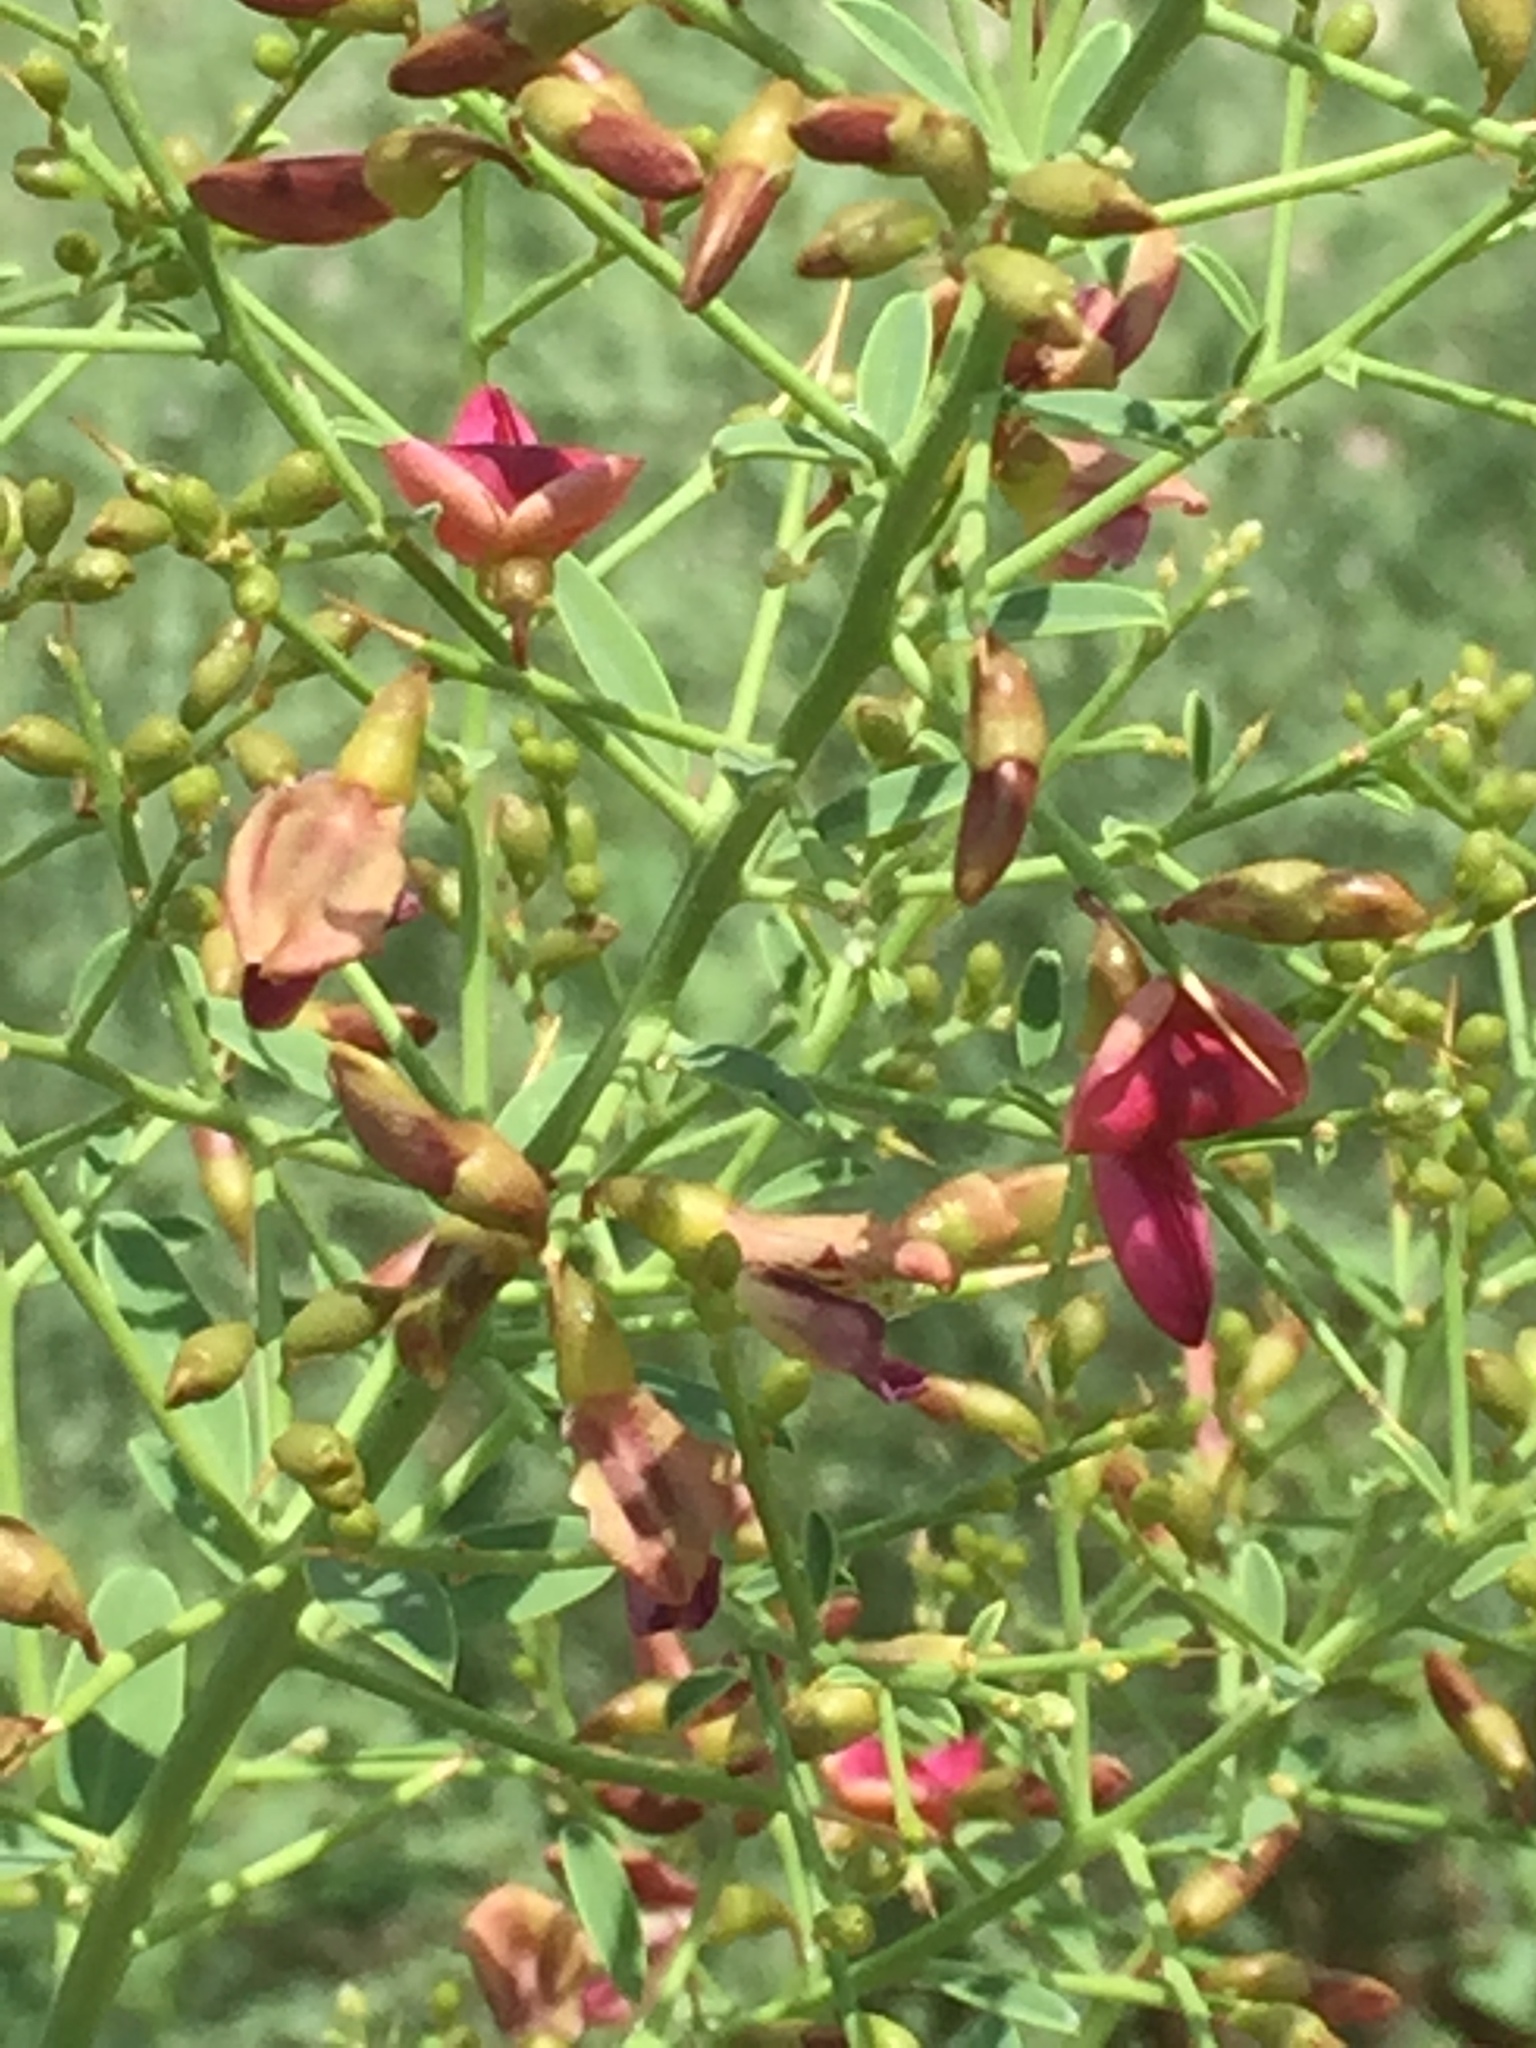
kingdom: Plantae
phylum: Tracheophyta
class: Magnoliopsida
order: Fabales
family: Fabaceae
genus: Alhagi
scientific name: Alhagi maurorum
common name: Camelthorn
